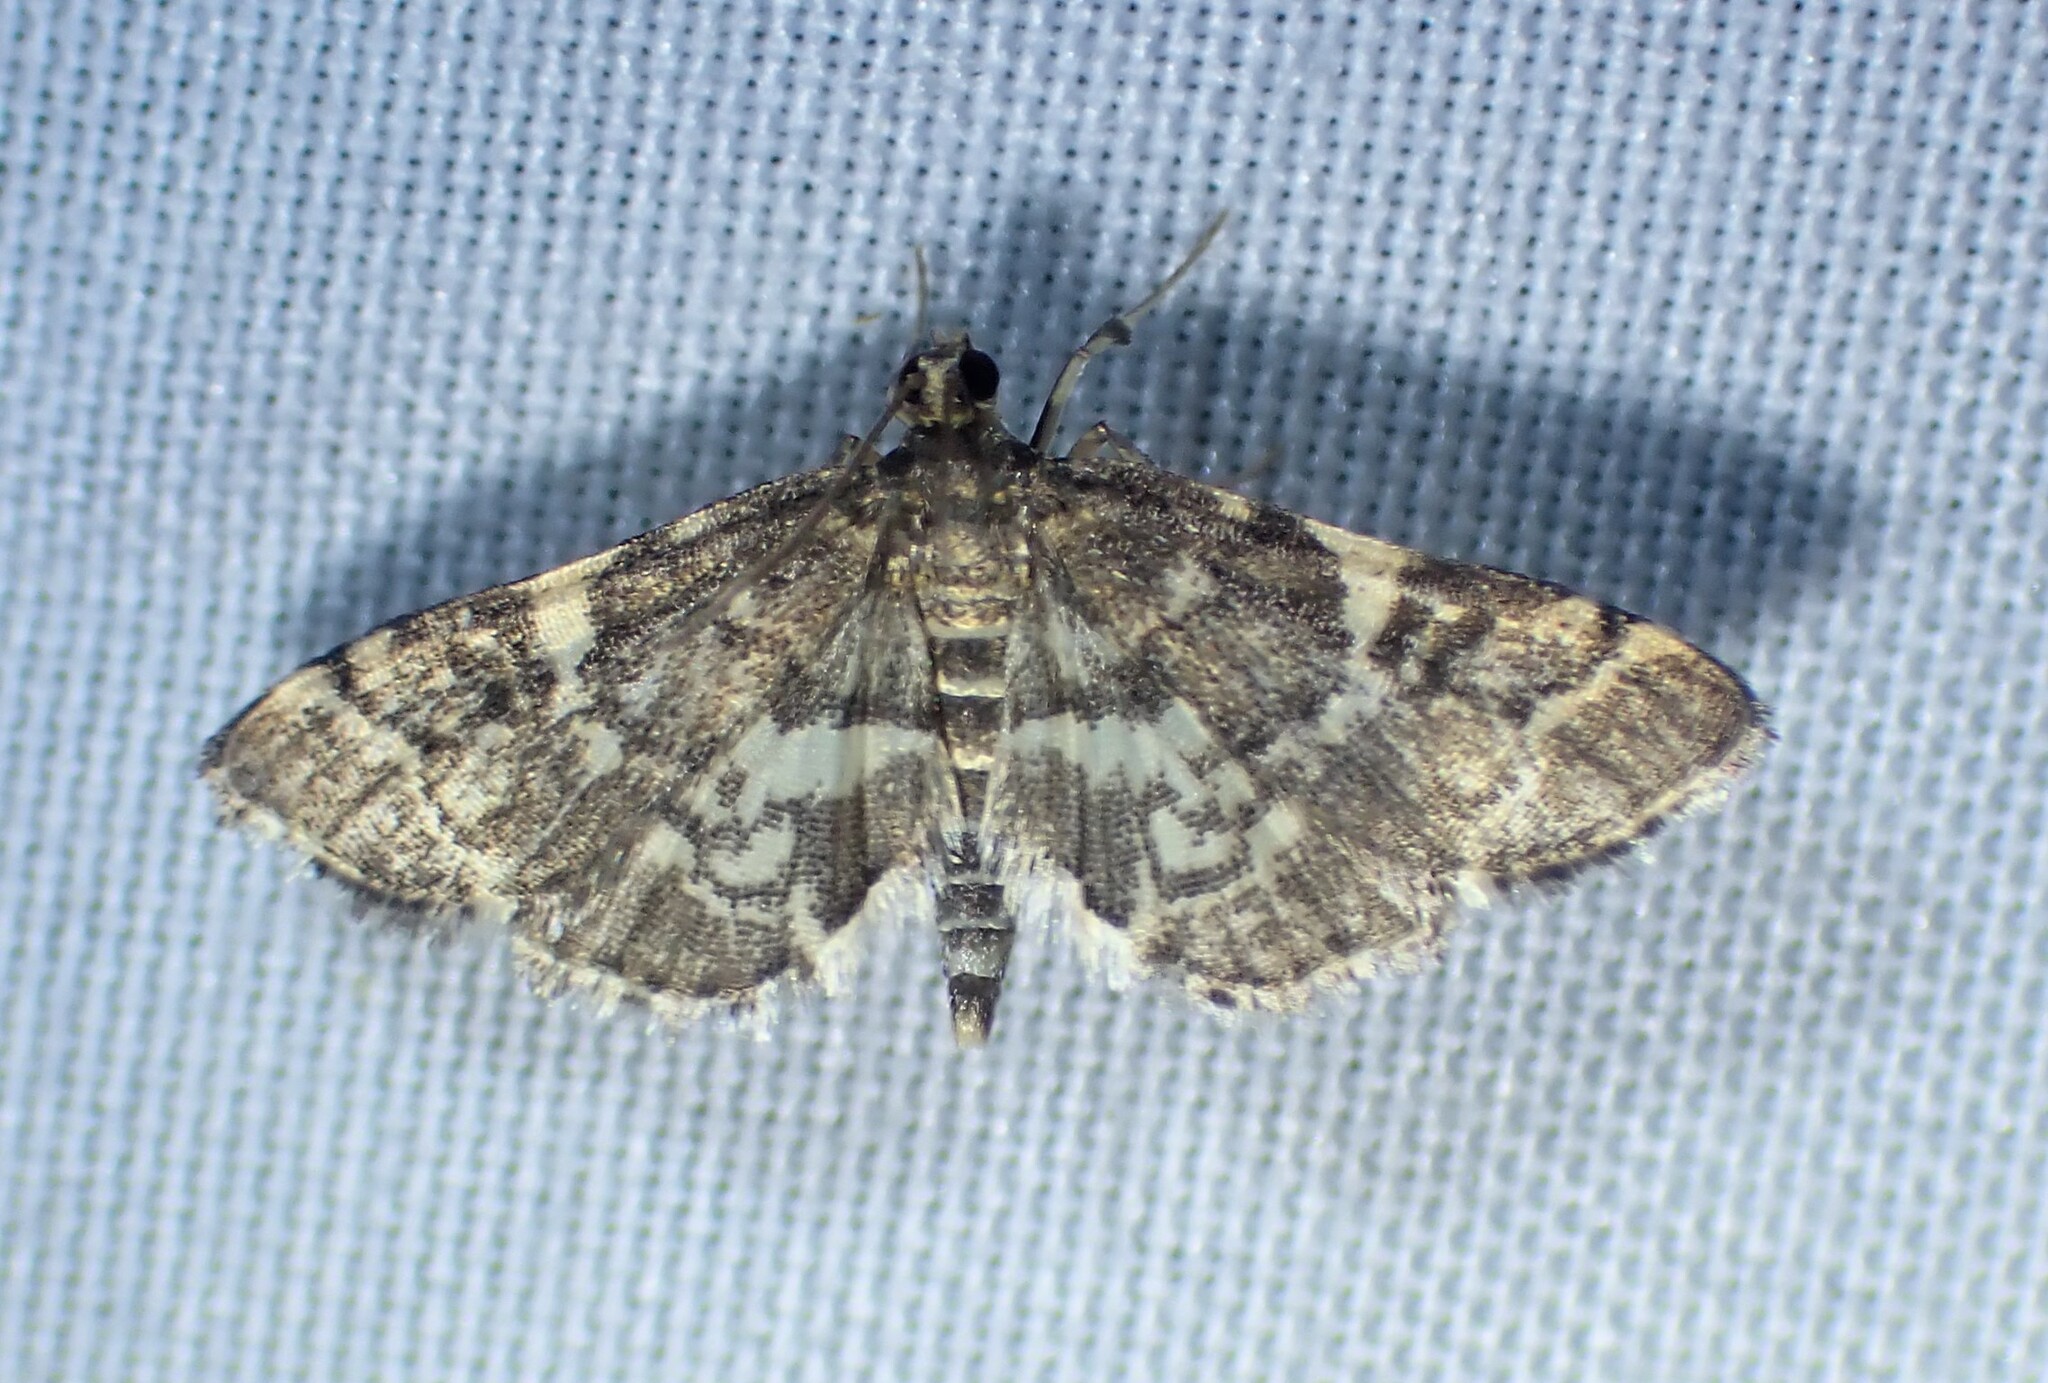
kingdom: Animalia
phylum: Arthropoda
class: Insecta
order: Lepidoptera
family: Crambidae
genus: Anageshna
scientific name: Anageshna primordialis
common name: Yellow-spotted webworm moth
